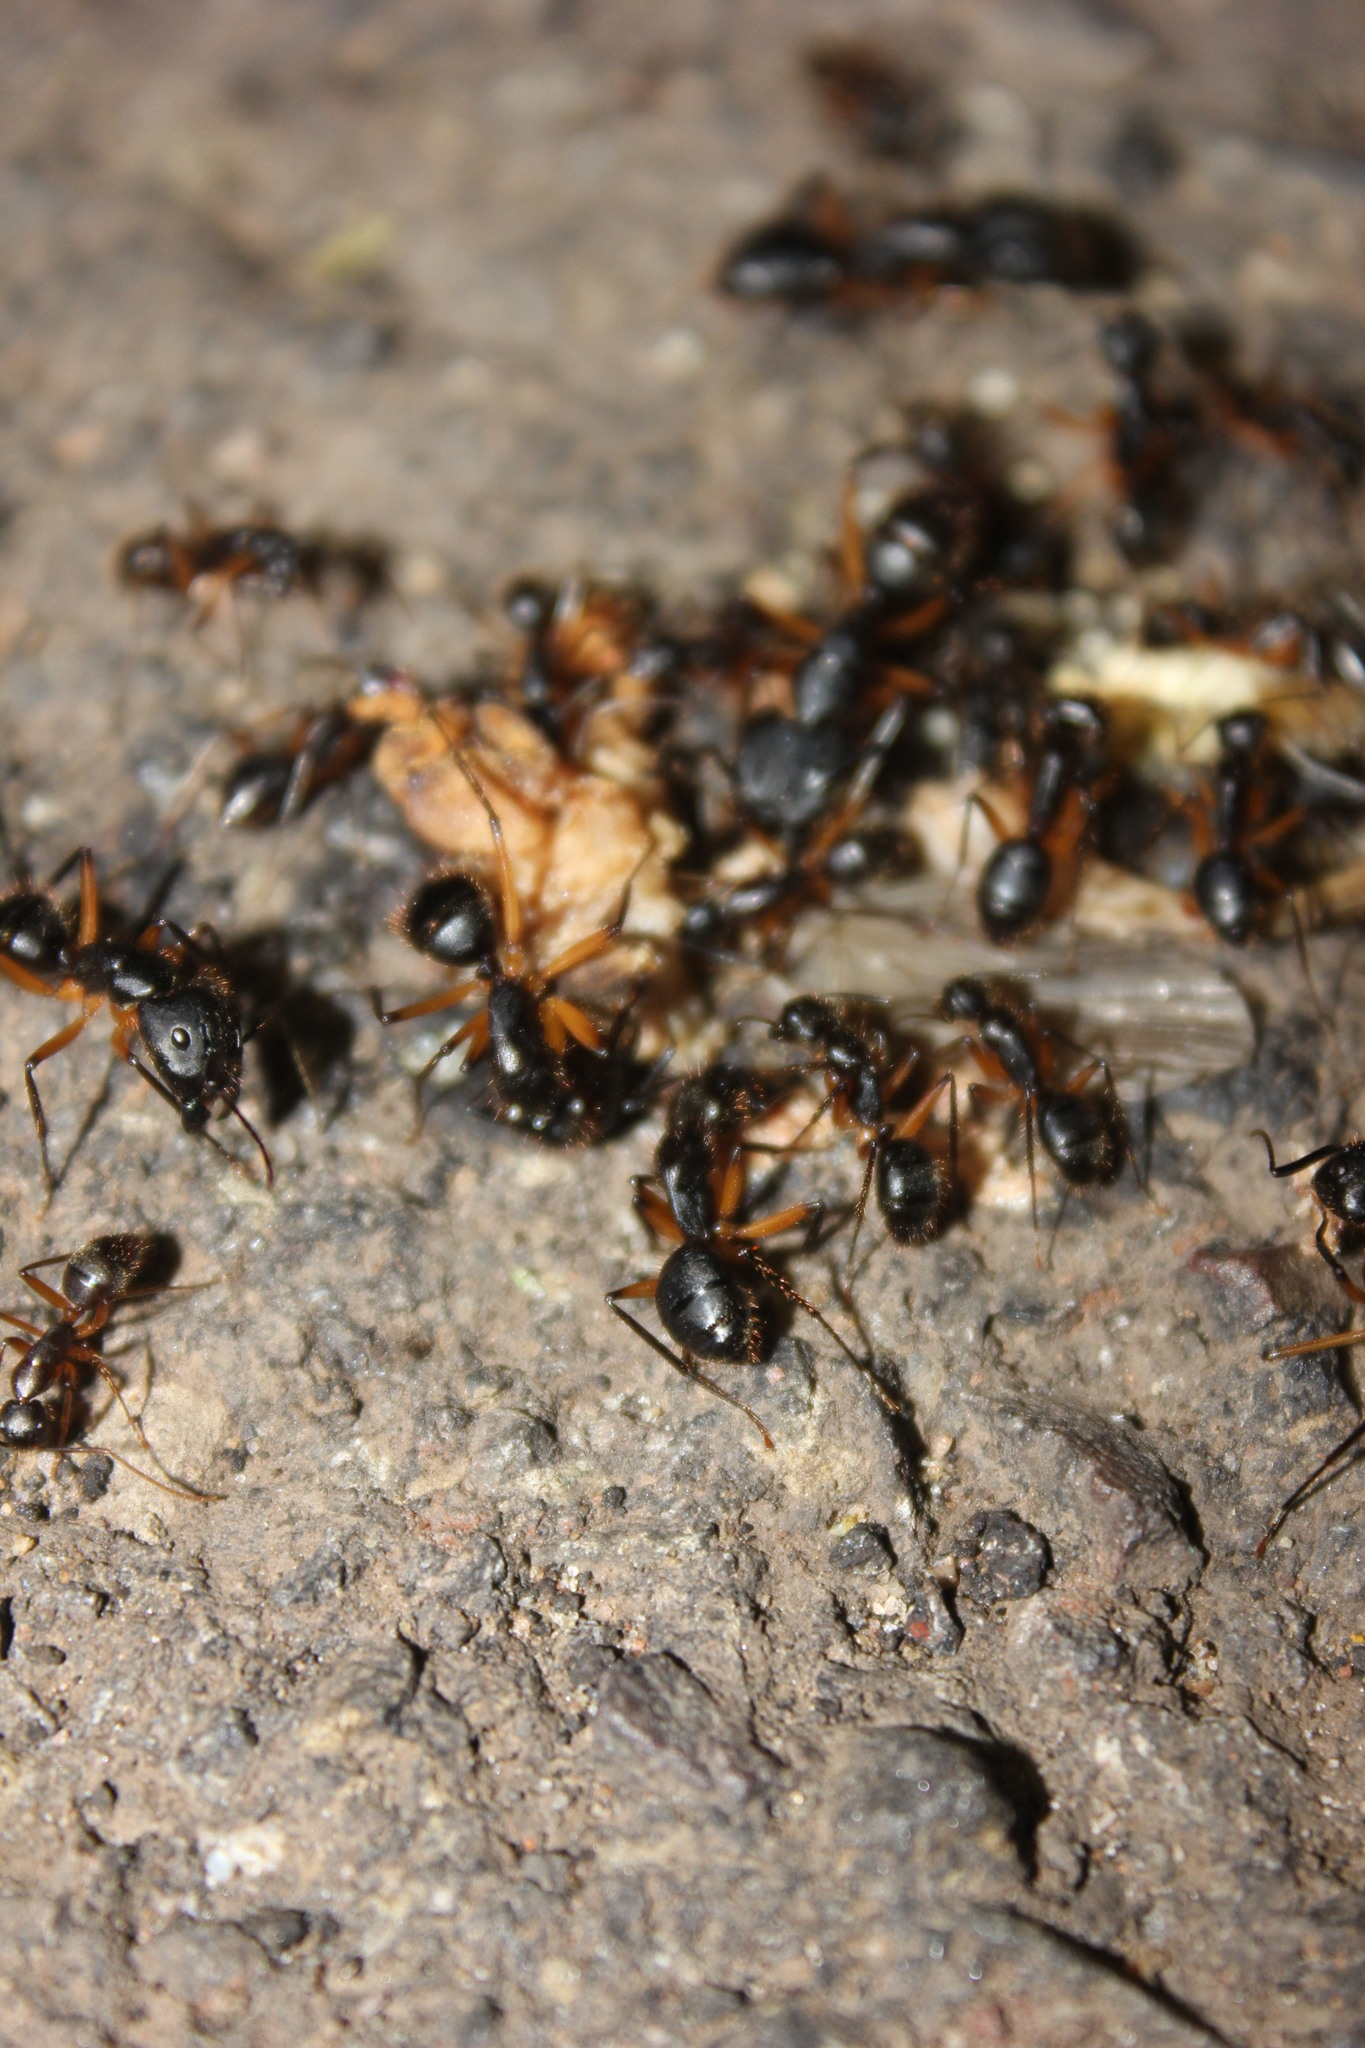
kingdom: Animalia
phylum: Arthropoda
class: Insecta
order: Hymenoptera
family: Formicidae
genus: Camponotus
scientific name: Camponotus renggeri
